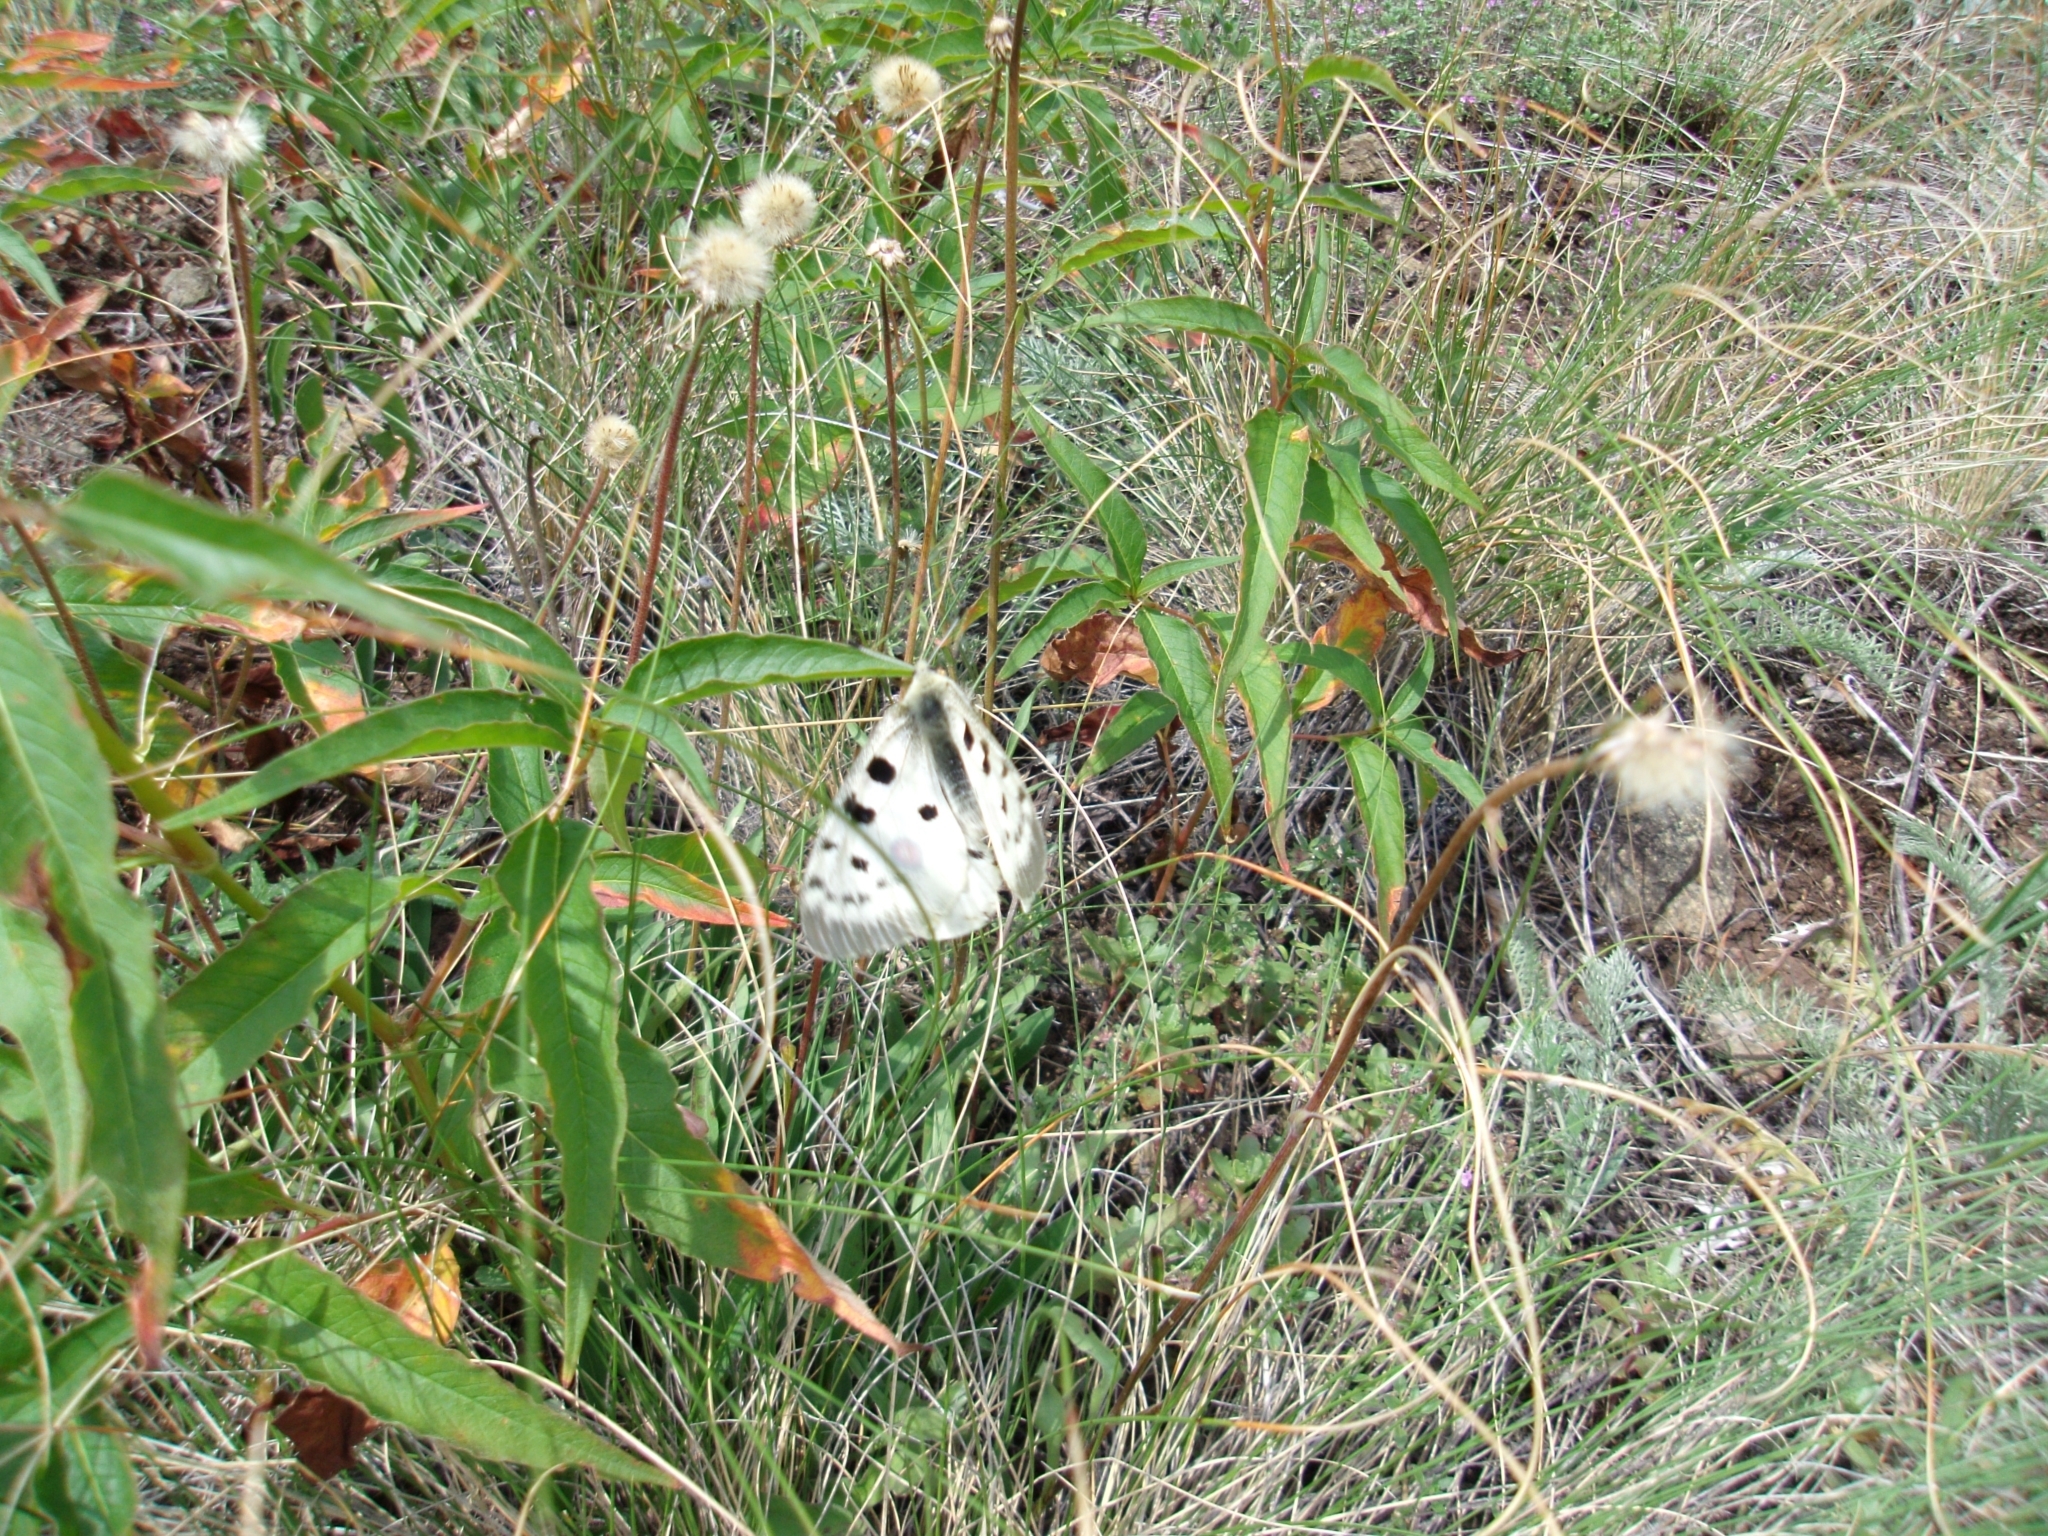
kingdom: Animalia
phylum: Arthropoda
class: Insecta
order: Lepidoptera
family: Papilionidae
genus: Parnassius
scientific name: Parnassius apollo
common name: Apollo
